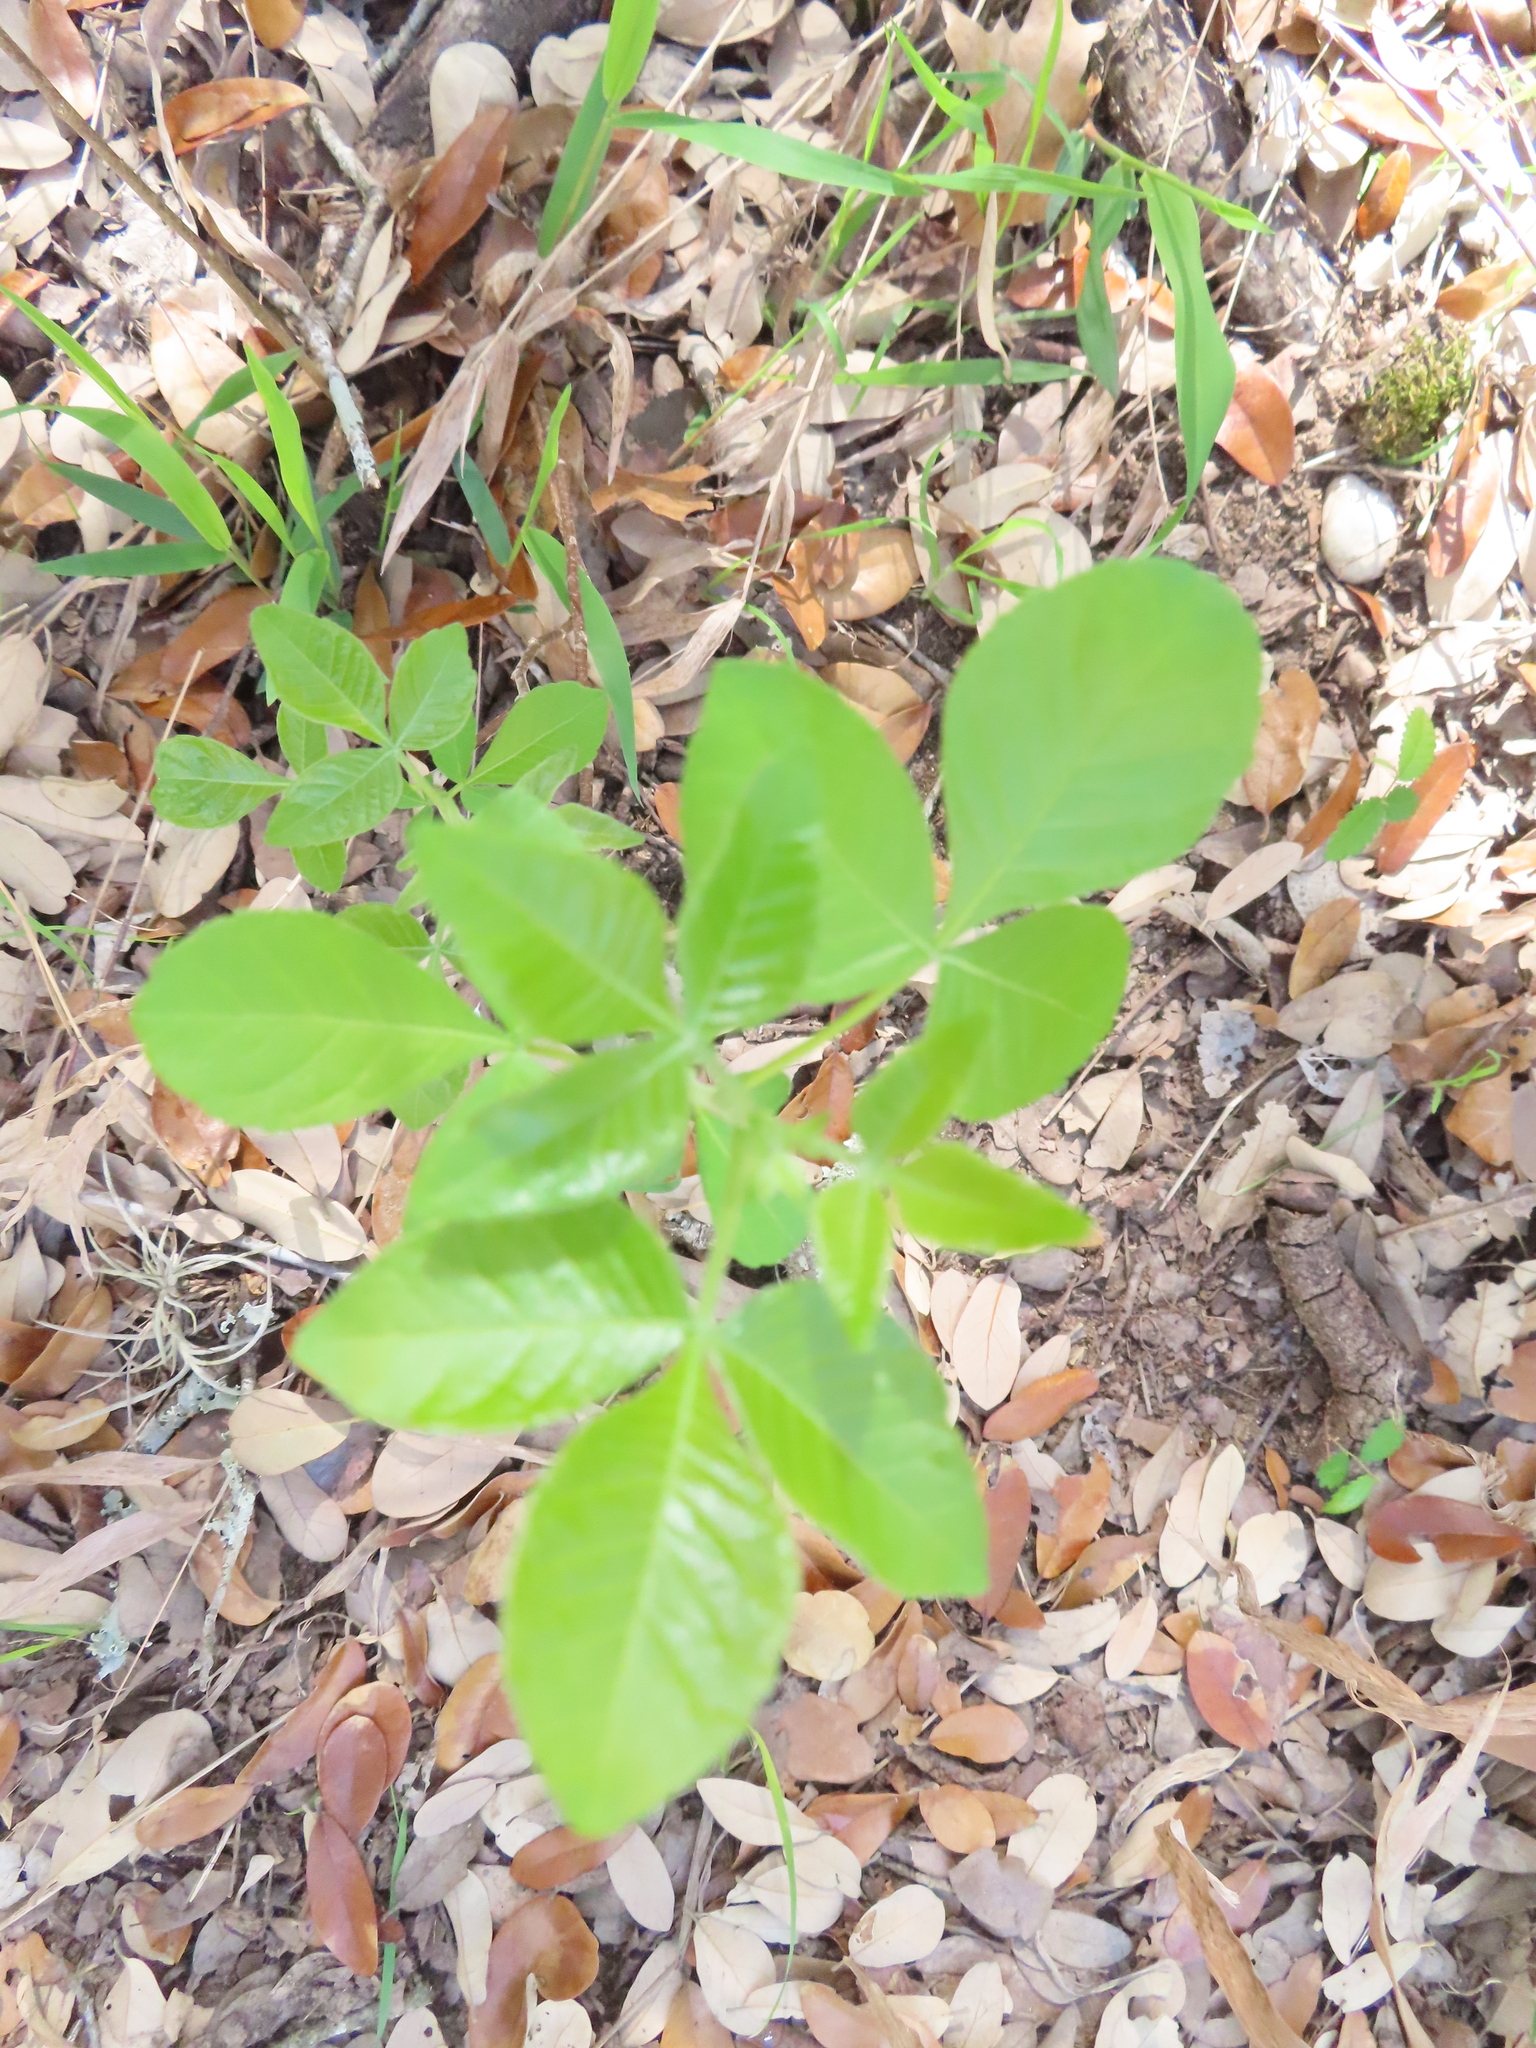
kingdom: Plantae
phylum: Tracheophyta
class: Magnoliopsida
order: Sapindales
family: Rutaceae
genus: Ptelea
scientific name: Ptelea trifoliata
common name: Common hop-tree
